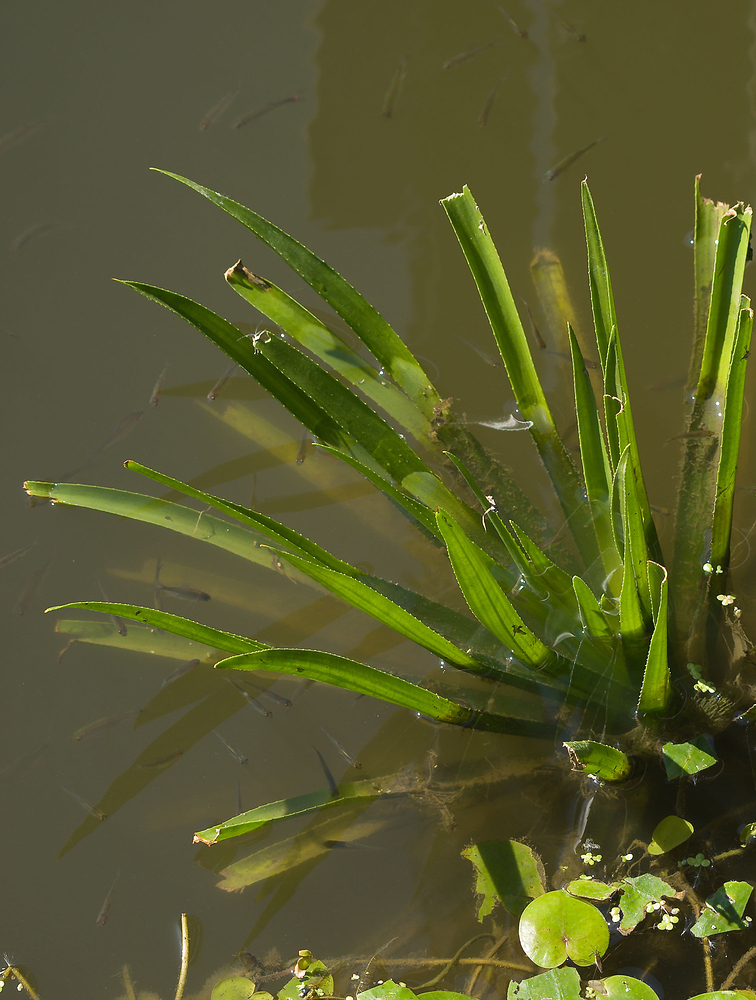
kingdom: Plantae
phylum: Tracheophyta
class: Liliopsida
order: Alismatales
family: Hydrocharitaceae
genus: Stratiotes
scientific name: Stratiotes aloides
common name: Water-soldier
